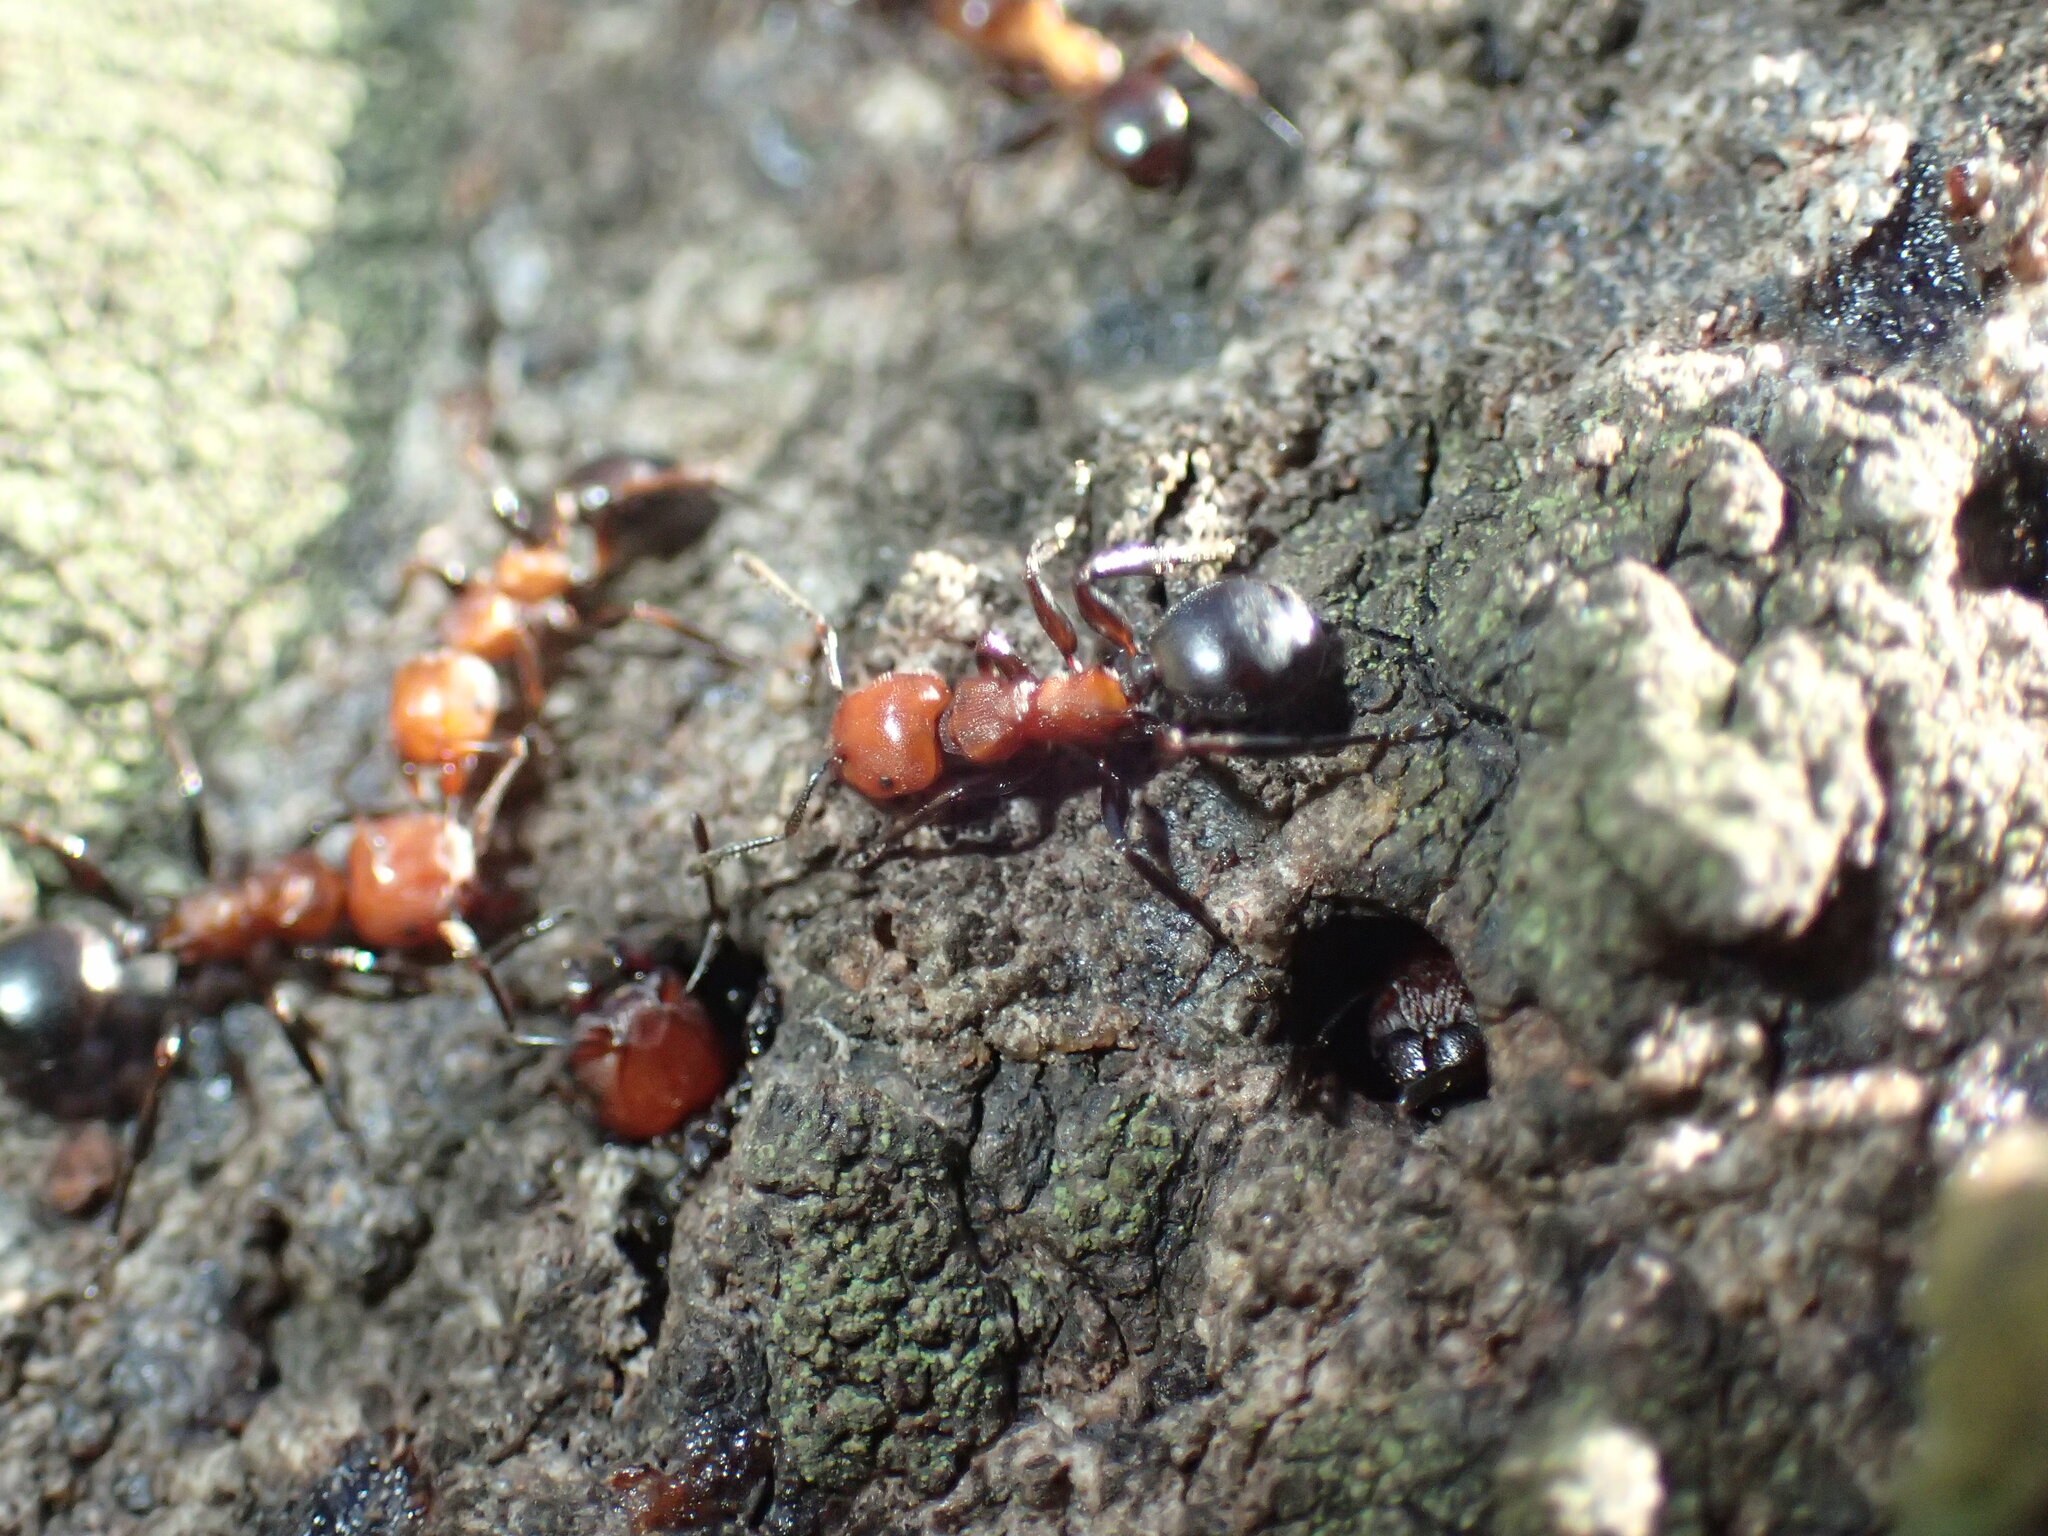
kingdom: Animalia
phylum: Arthropoda
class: Insecta
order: Hymenoptera
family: Formicidae
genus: Atopomyrmex
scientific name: Atopomyrmex mocquerysi
